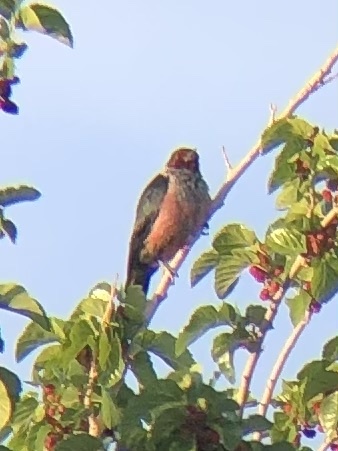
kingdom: Animalia
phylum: Chordata
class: Aves
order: Piciformes
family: Picidae
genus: Melanerpes
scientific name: Melanerpes lewis
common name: Lewis's woodpecker
